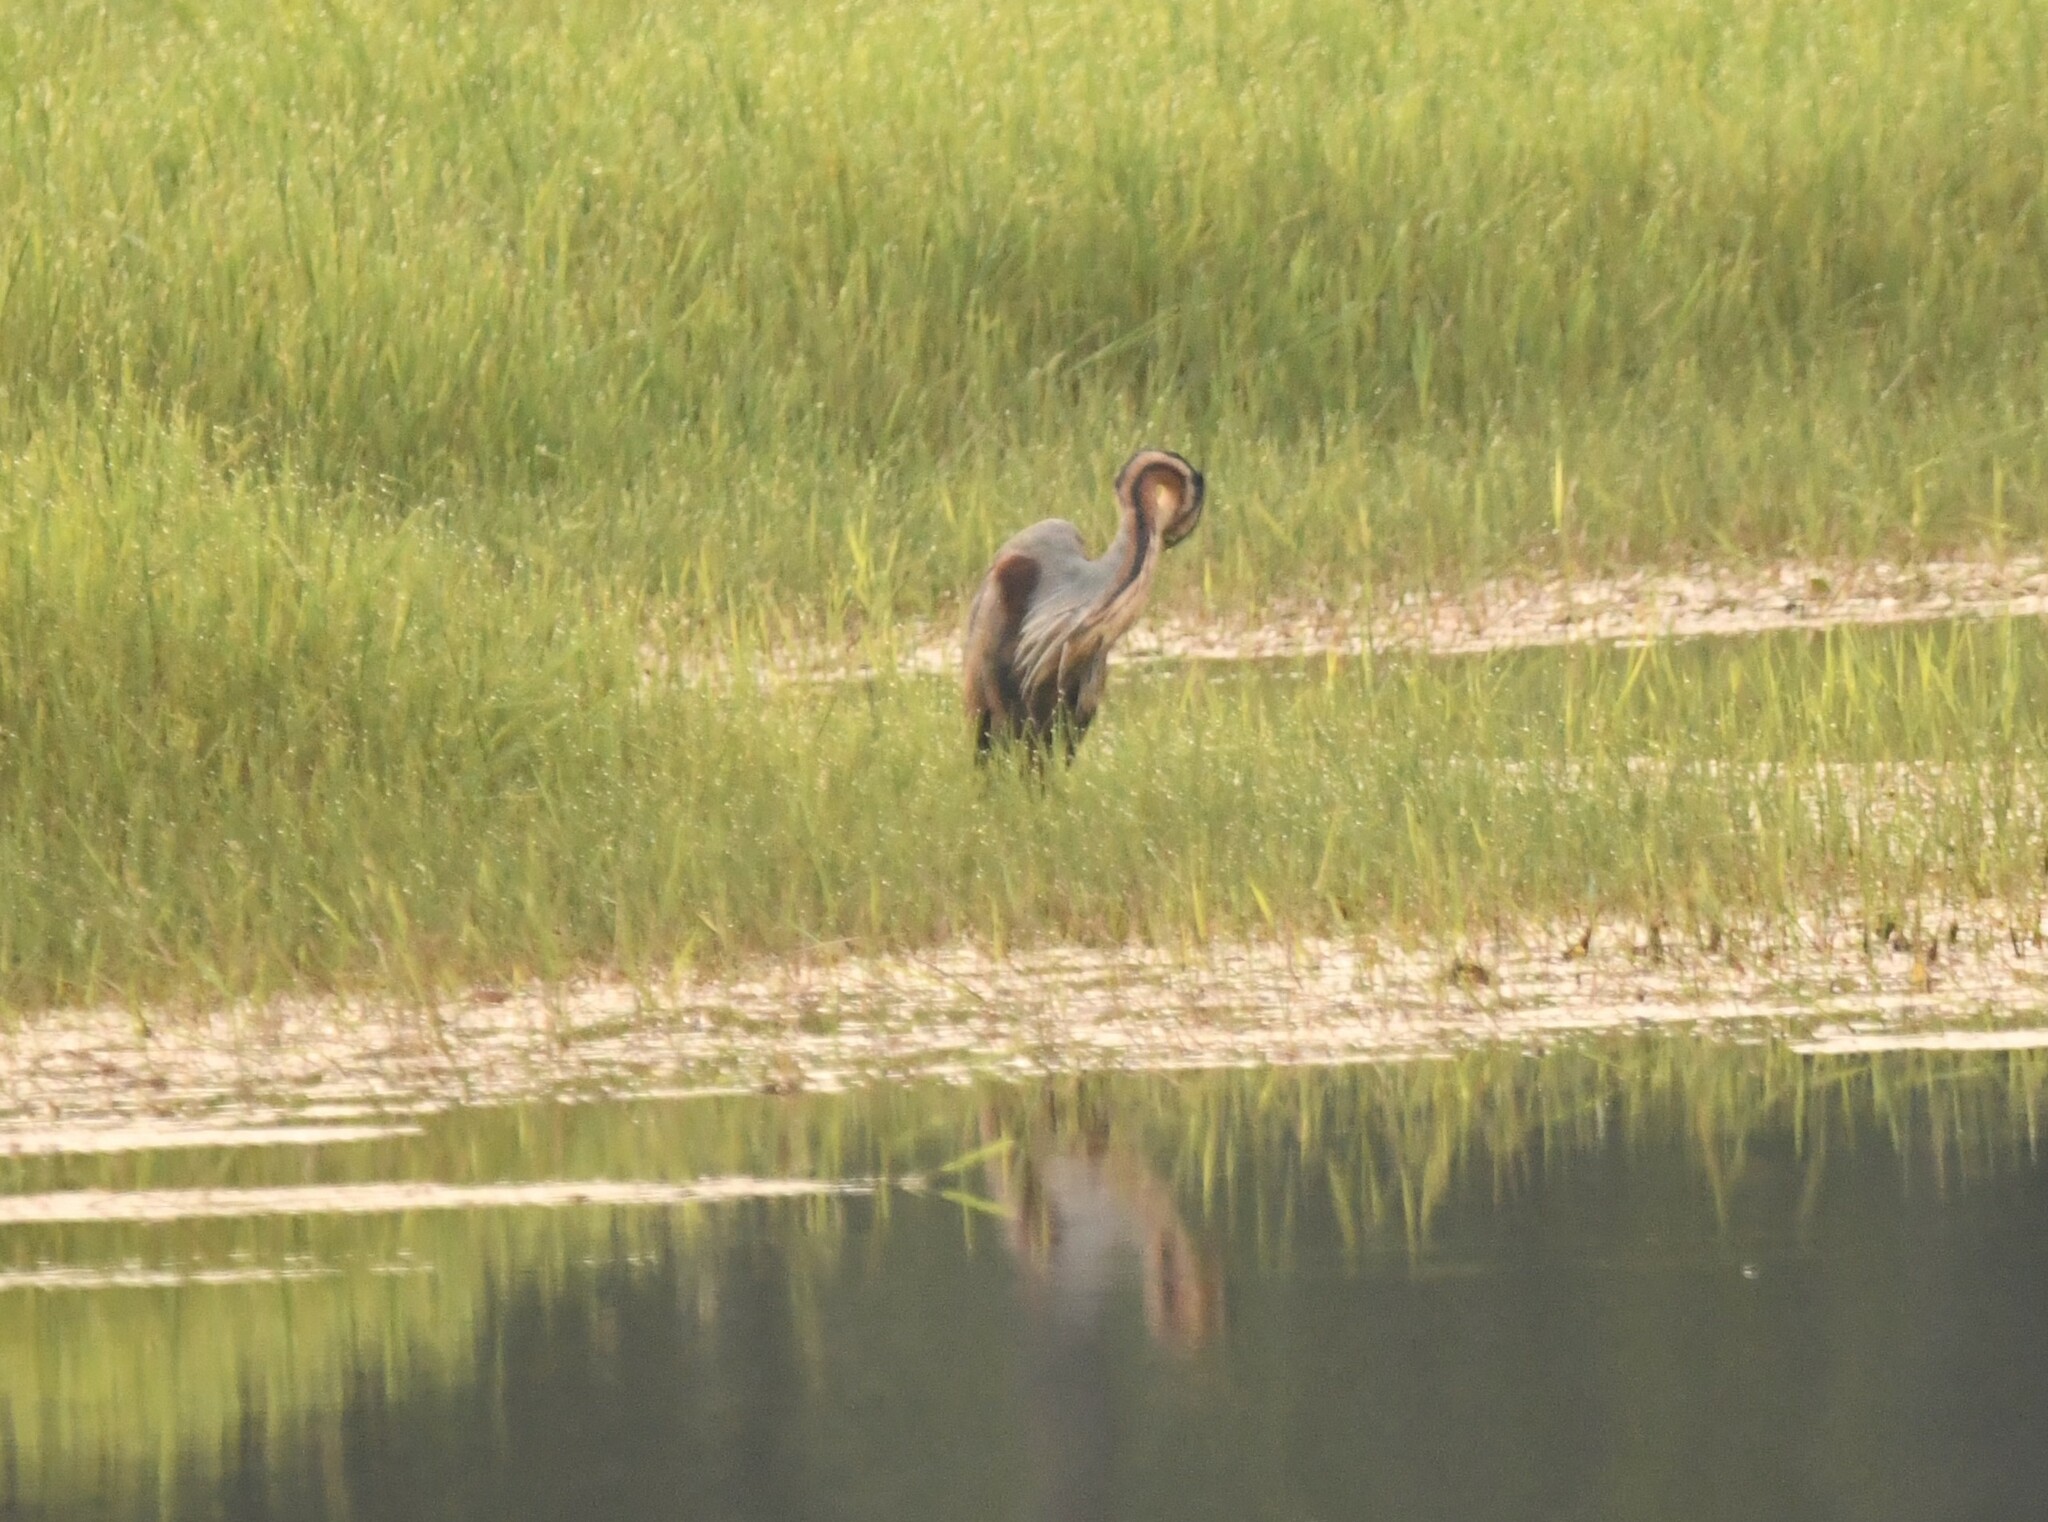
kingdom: Animalia
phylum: Chordata
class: Aves
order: Pelecaniformes
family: Ardeidae
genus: Ardea
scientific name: Ardea purpurea
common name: Purple heron
